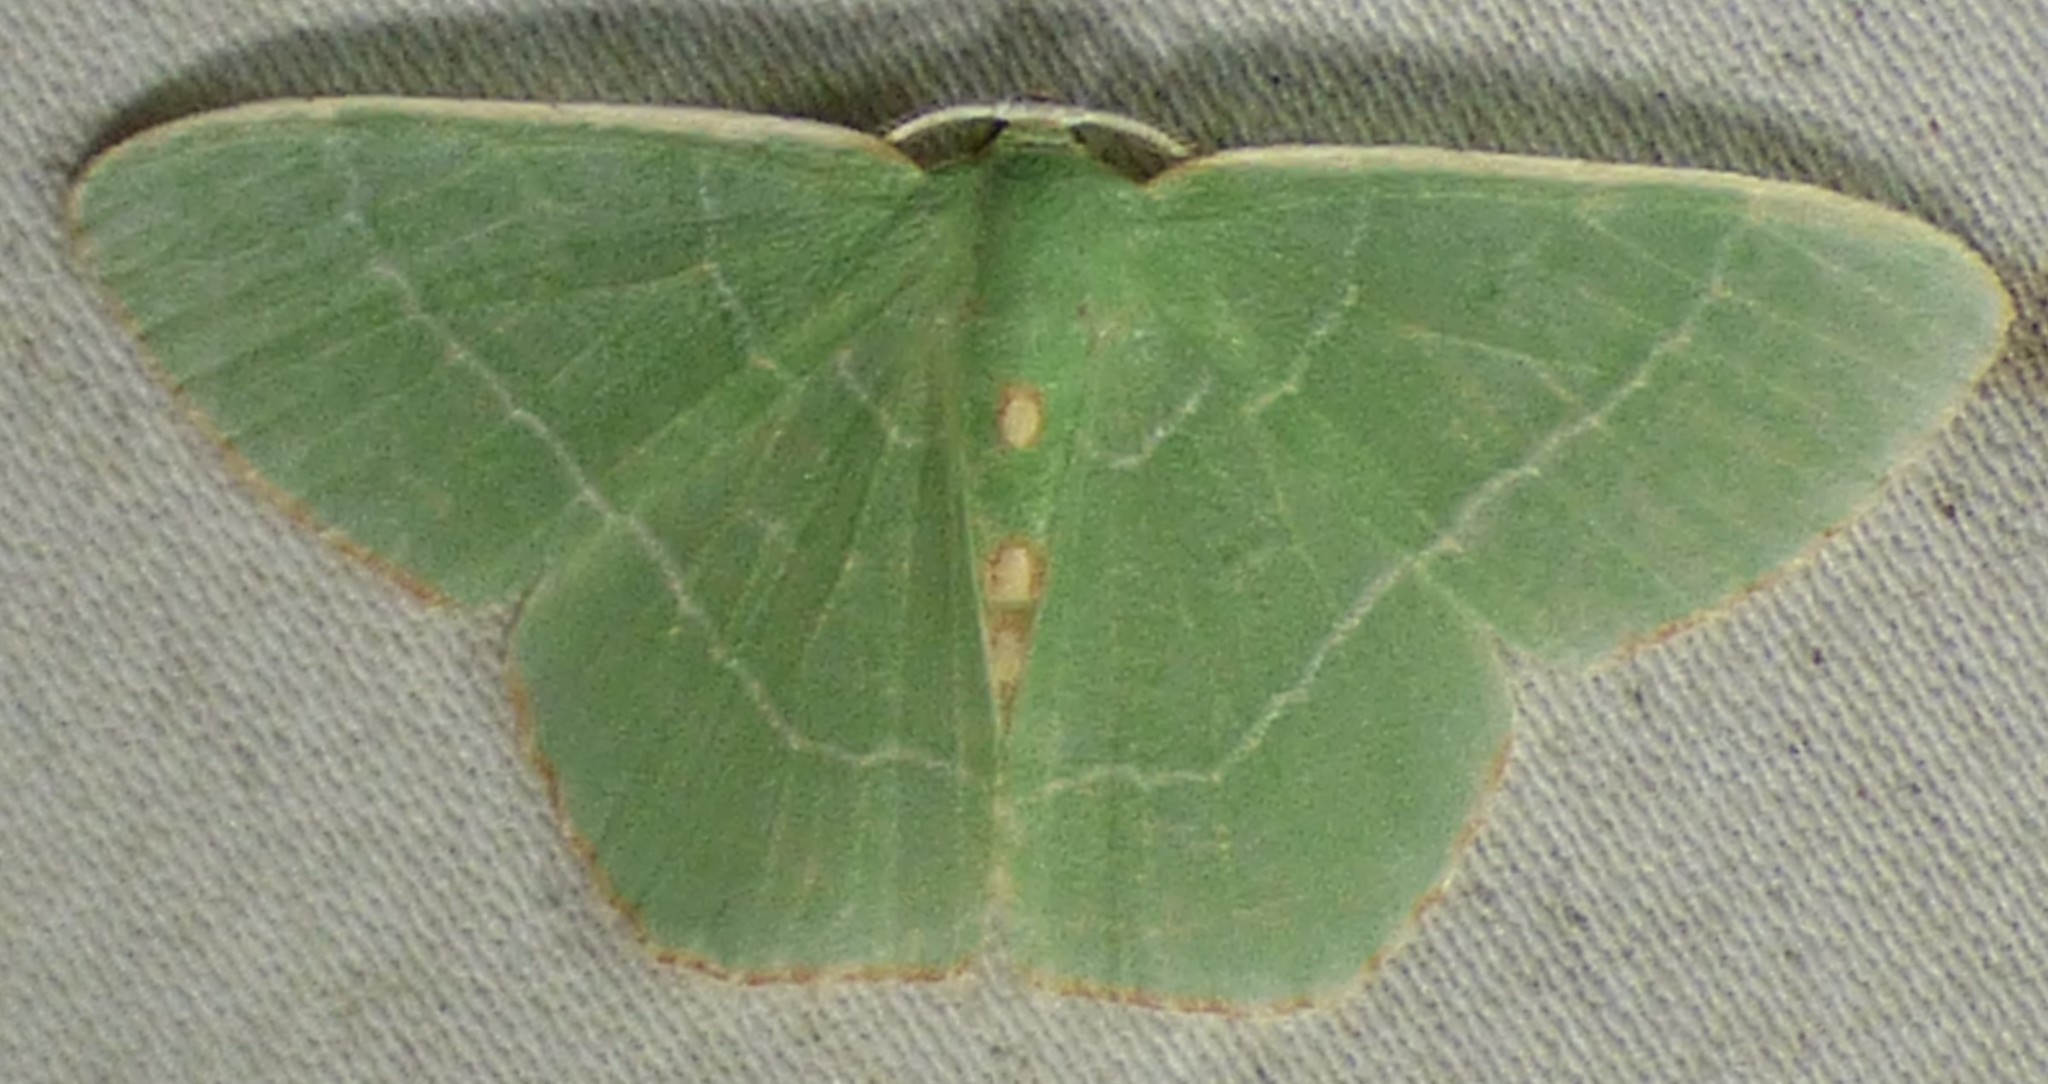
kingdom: Animalia
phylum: Arthropoda
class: Insecta
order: Lepidoptera
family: Geometridae
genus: Nemoria
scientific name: Nemoria bistriaria
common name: Red-fringed emerald
